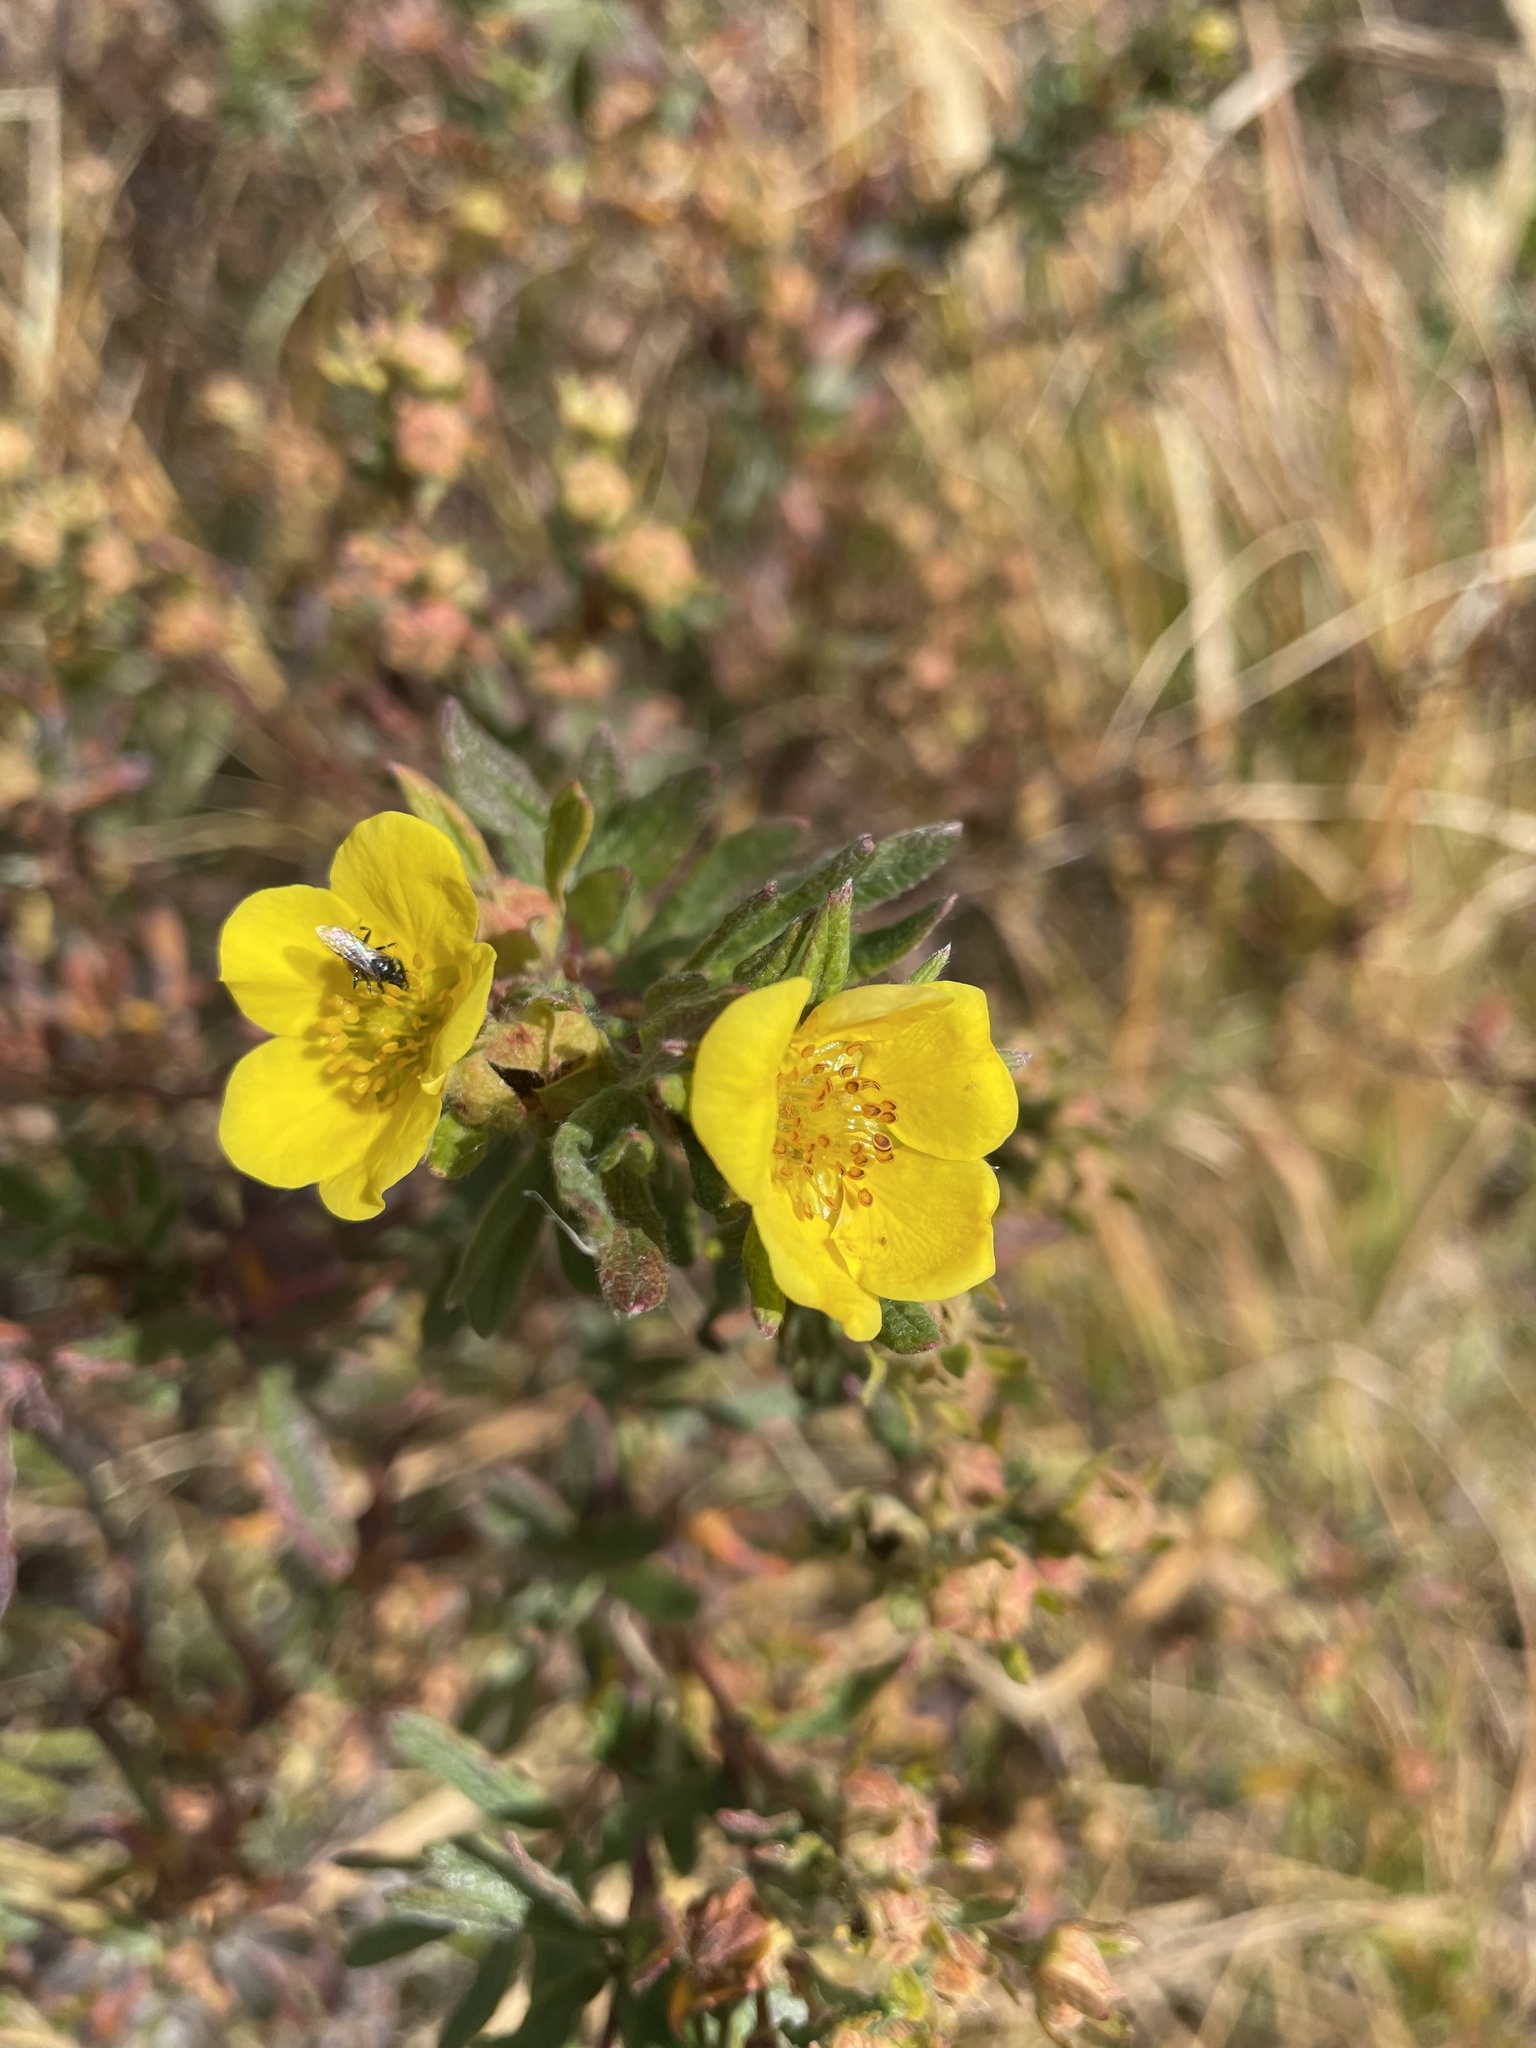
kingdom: Plantae
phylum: Tracheophyta
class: Magnoliopsida
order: Rosales
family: Rosaceae
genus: Dasiphora
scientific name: Dasiphora fruticosa
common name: Shrubby cinquefoil
